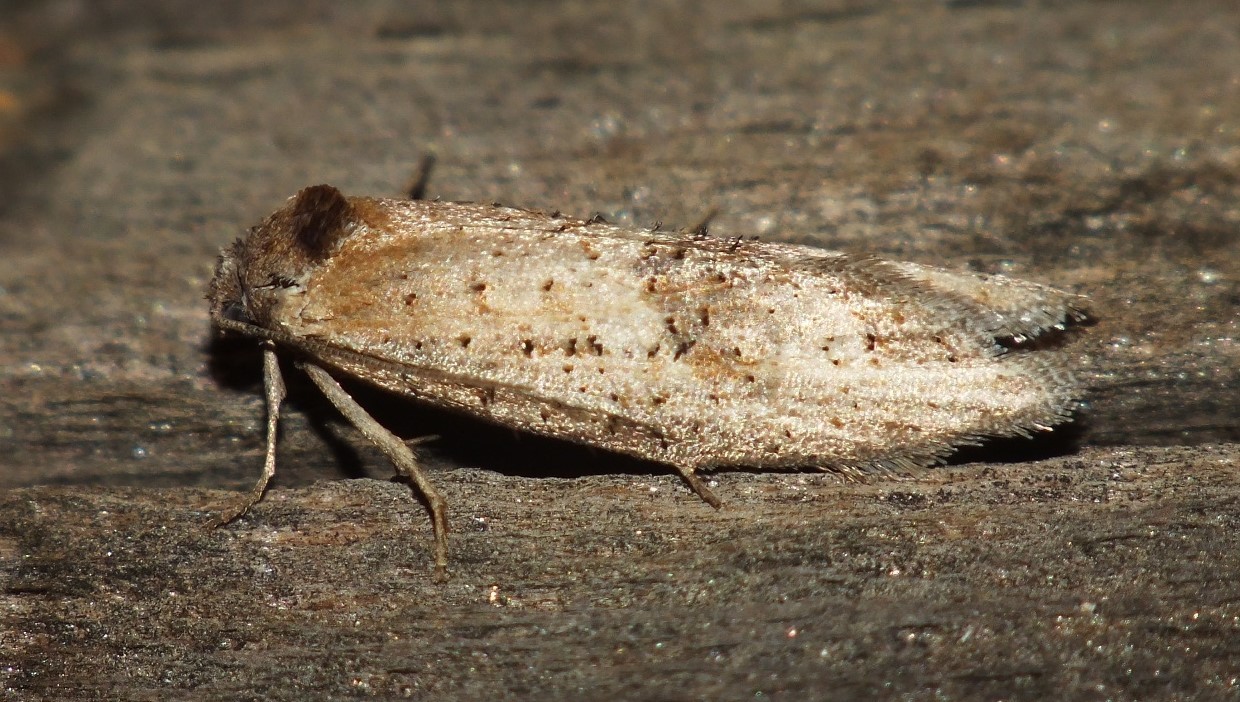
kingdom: Animalia
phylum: Arthropoda
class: Insecta
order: Lepidoptera
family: Tortricidae
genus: Oxypteron
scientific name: Oxypteron wertheimsteini
